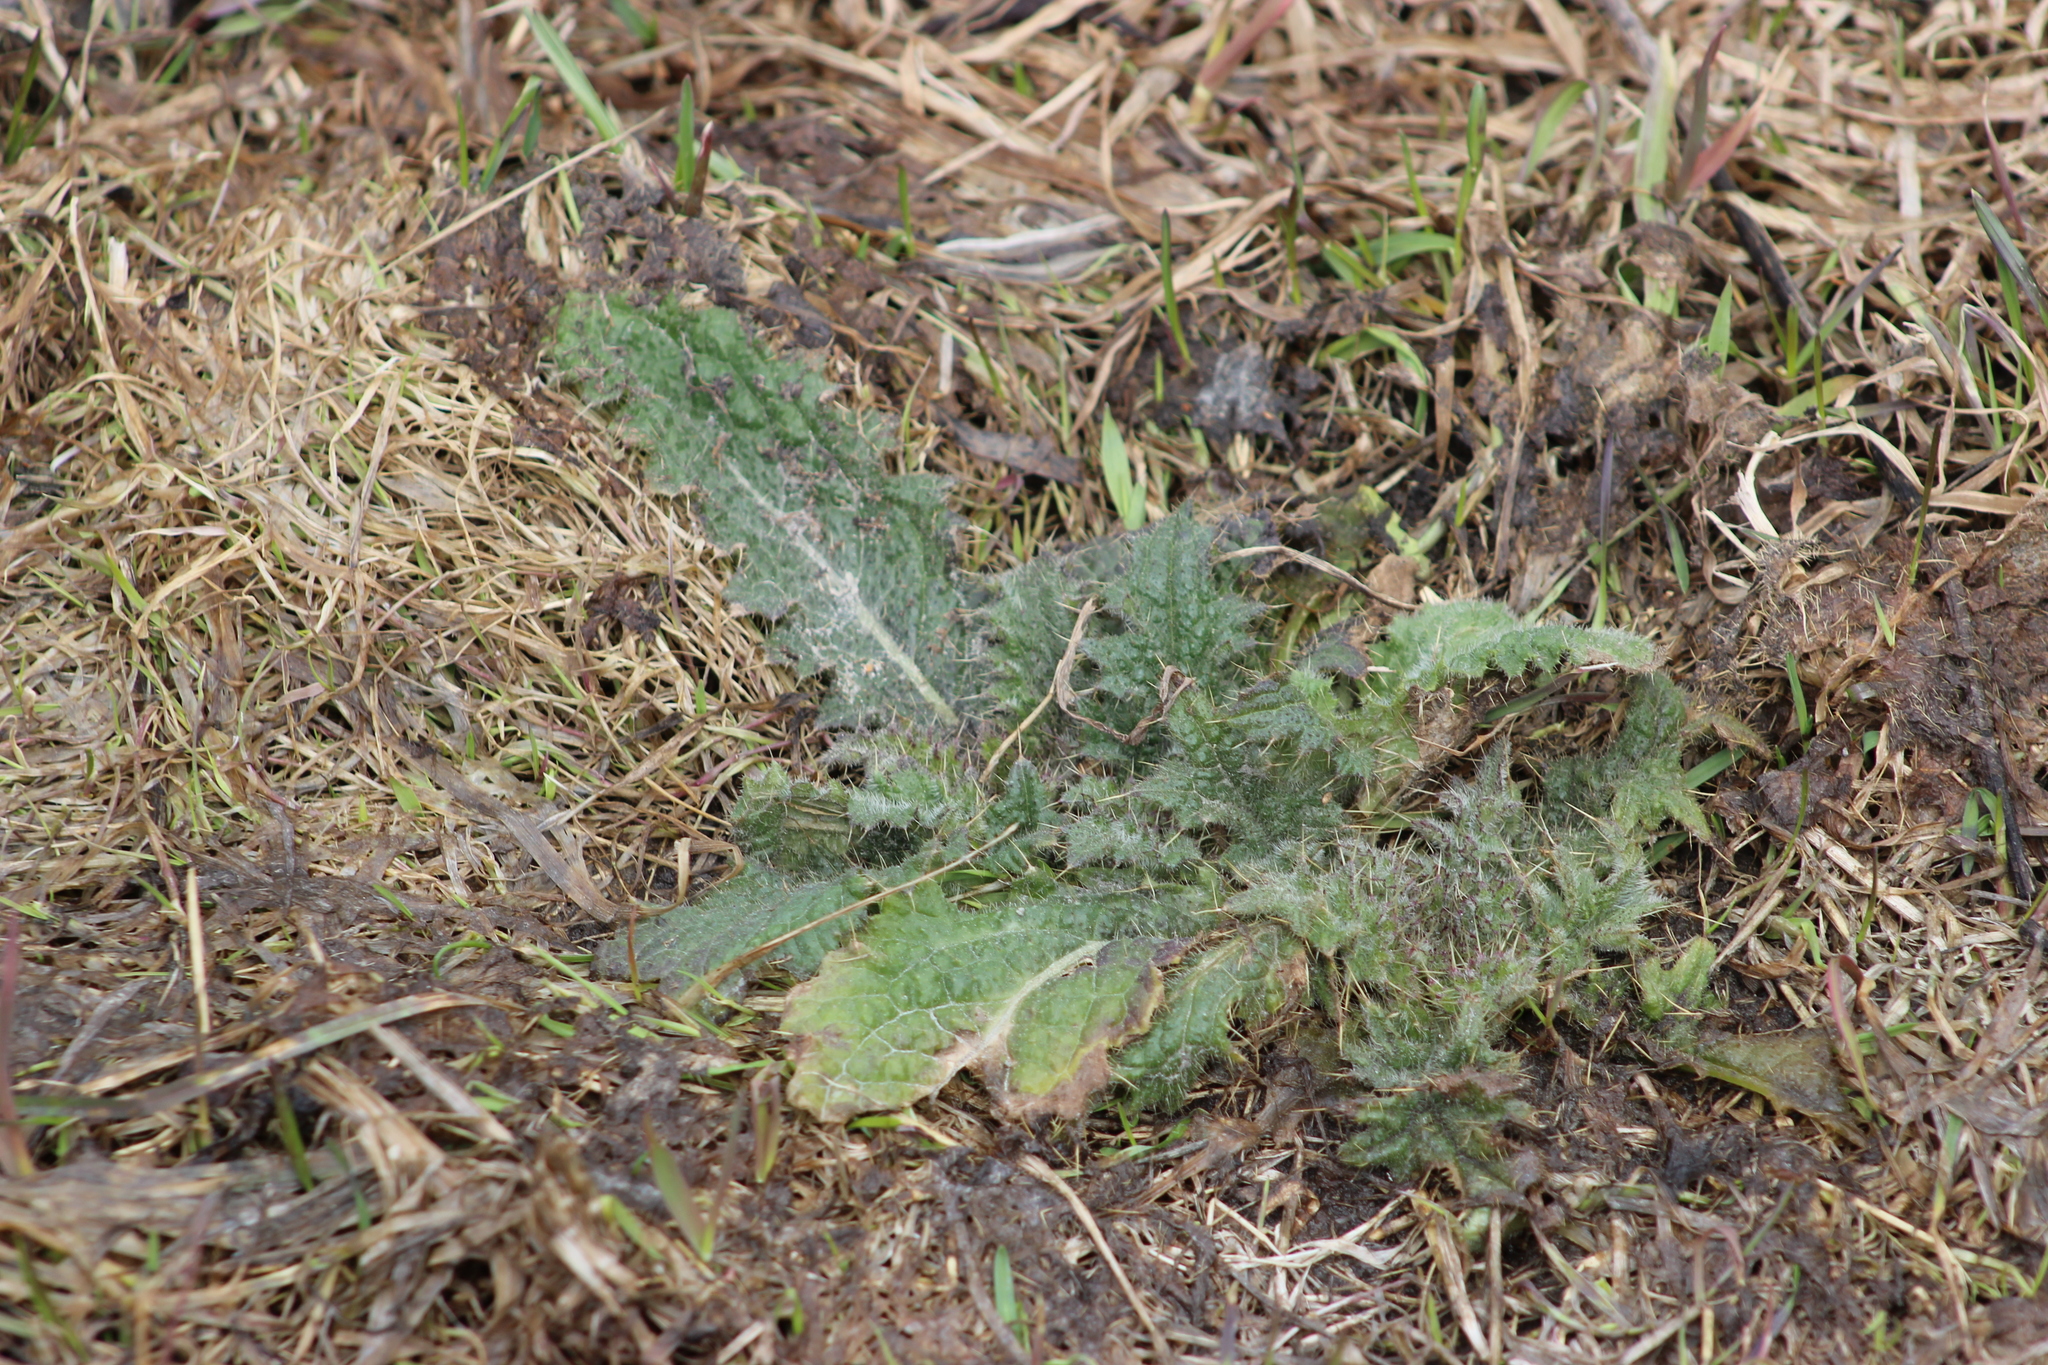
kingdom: Plantae
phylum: Tracheophyta
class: Magnoliopsida
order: Asterales
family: Asteraceae
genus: Cirsium
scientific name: Cirsium vulgare
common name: Bull thistle
